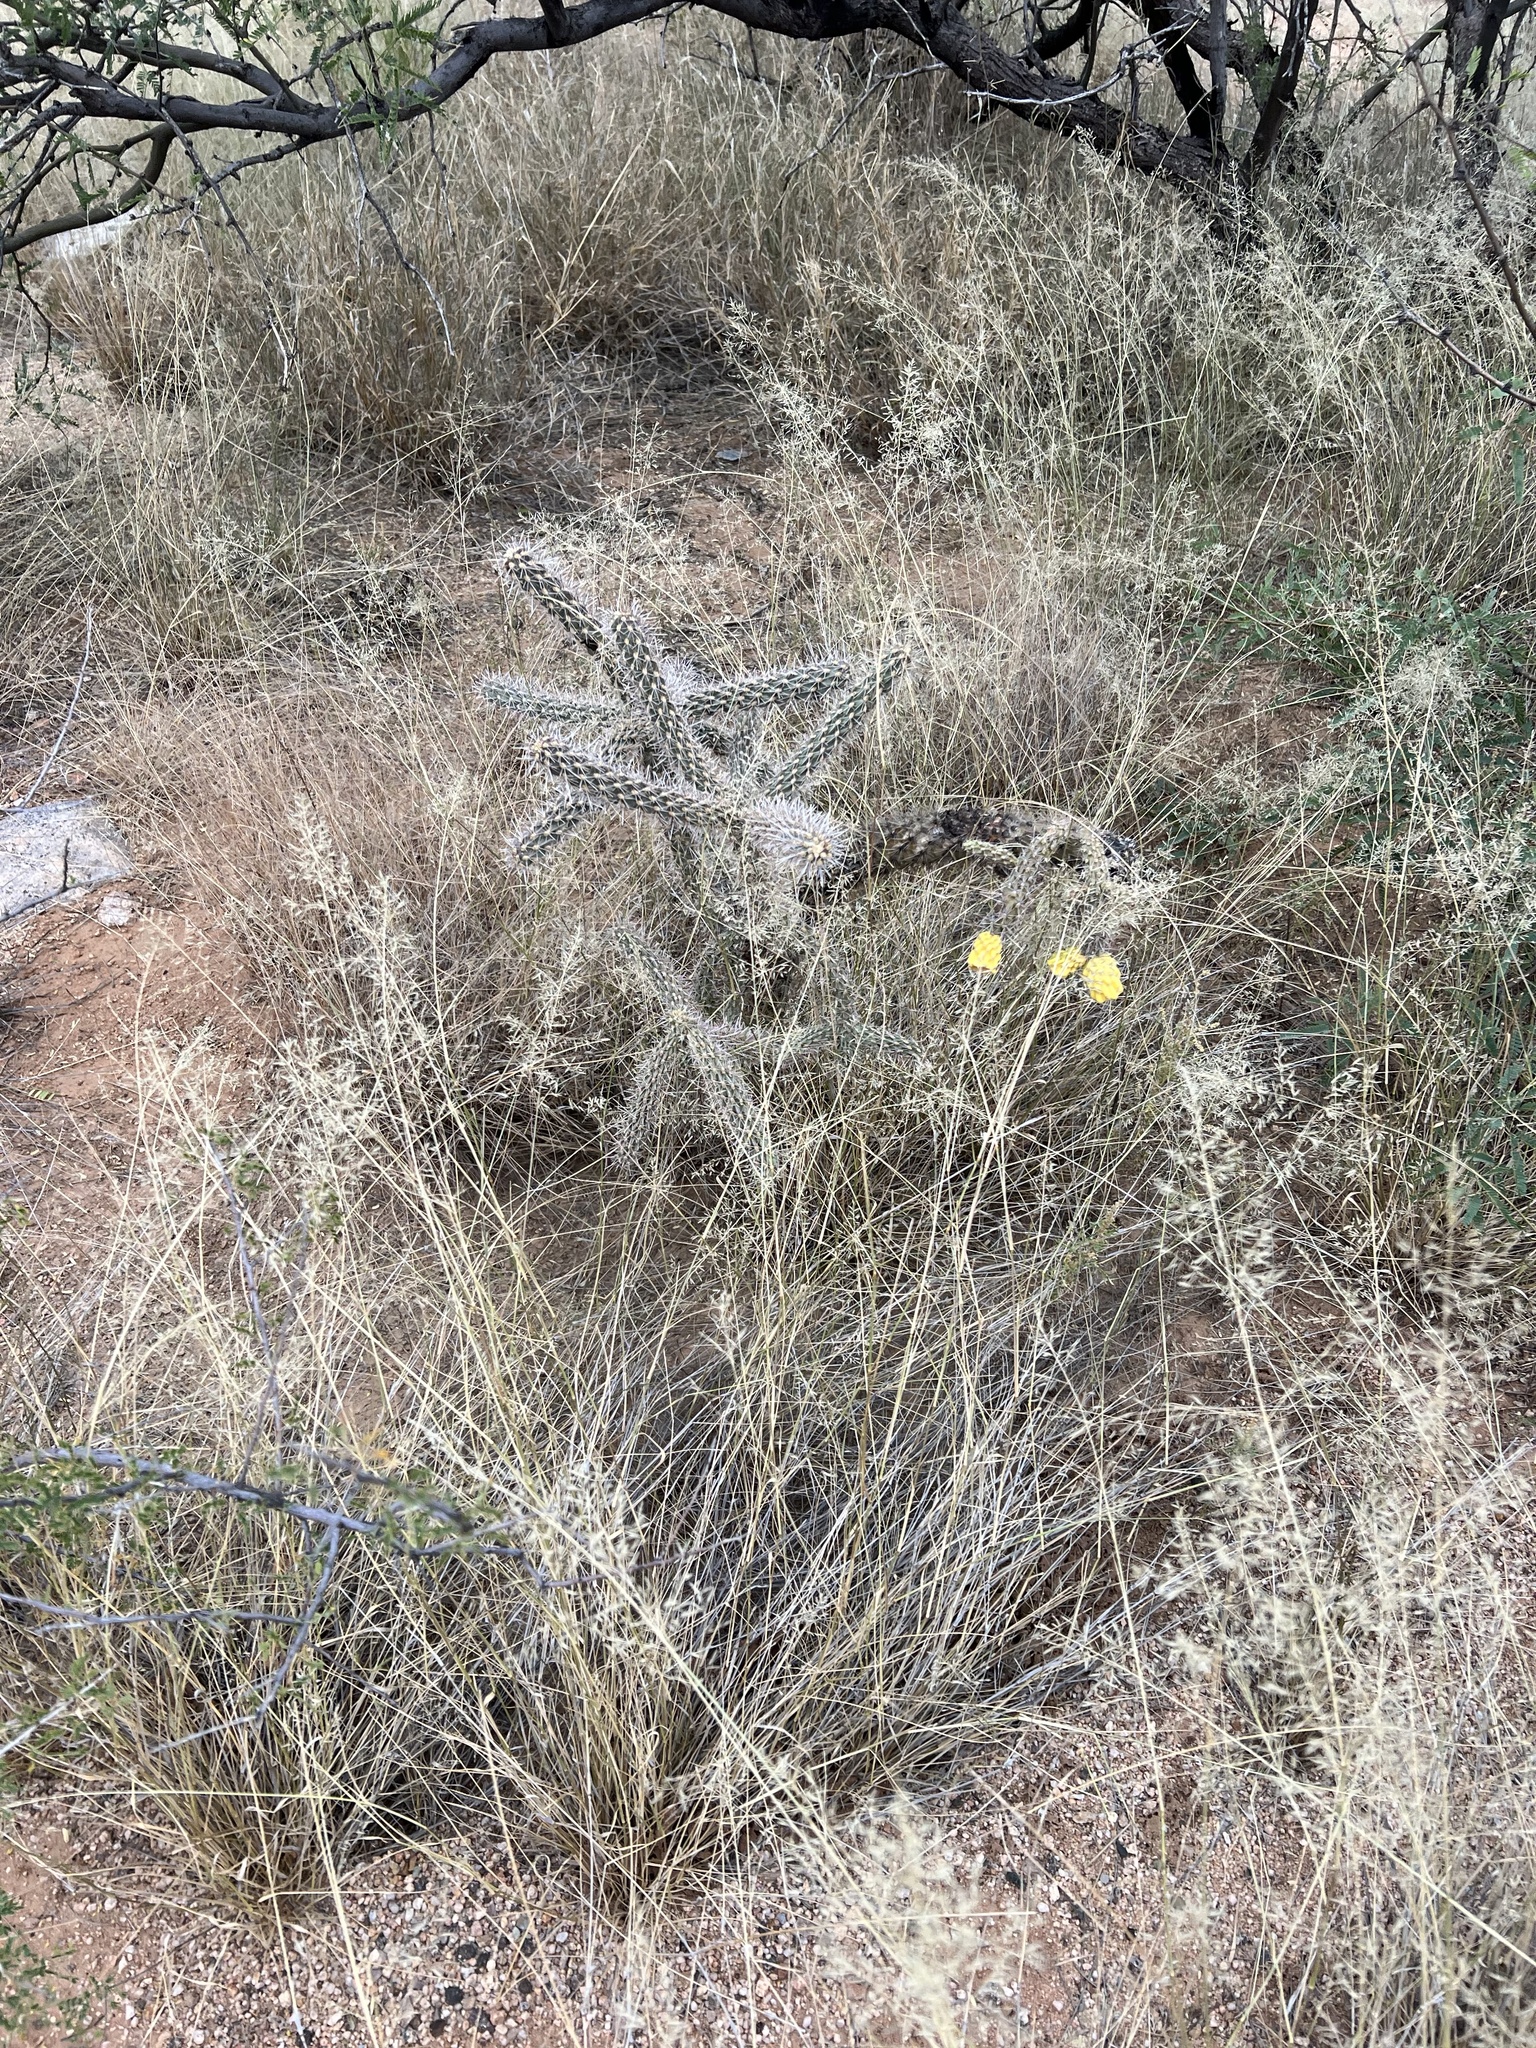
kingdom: Plantae
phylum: Tracheophyta
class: Magnoliopsida
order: Caryophyllales
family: Cactaceae
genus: Cylindropuntia
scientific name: Cylindropuntia imbricata
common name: Candelabrum cactus
